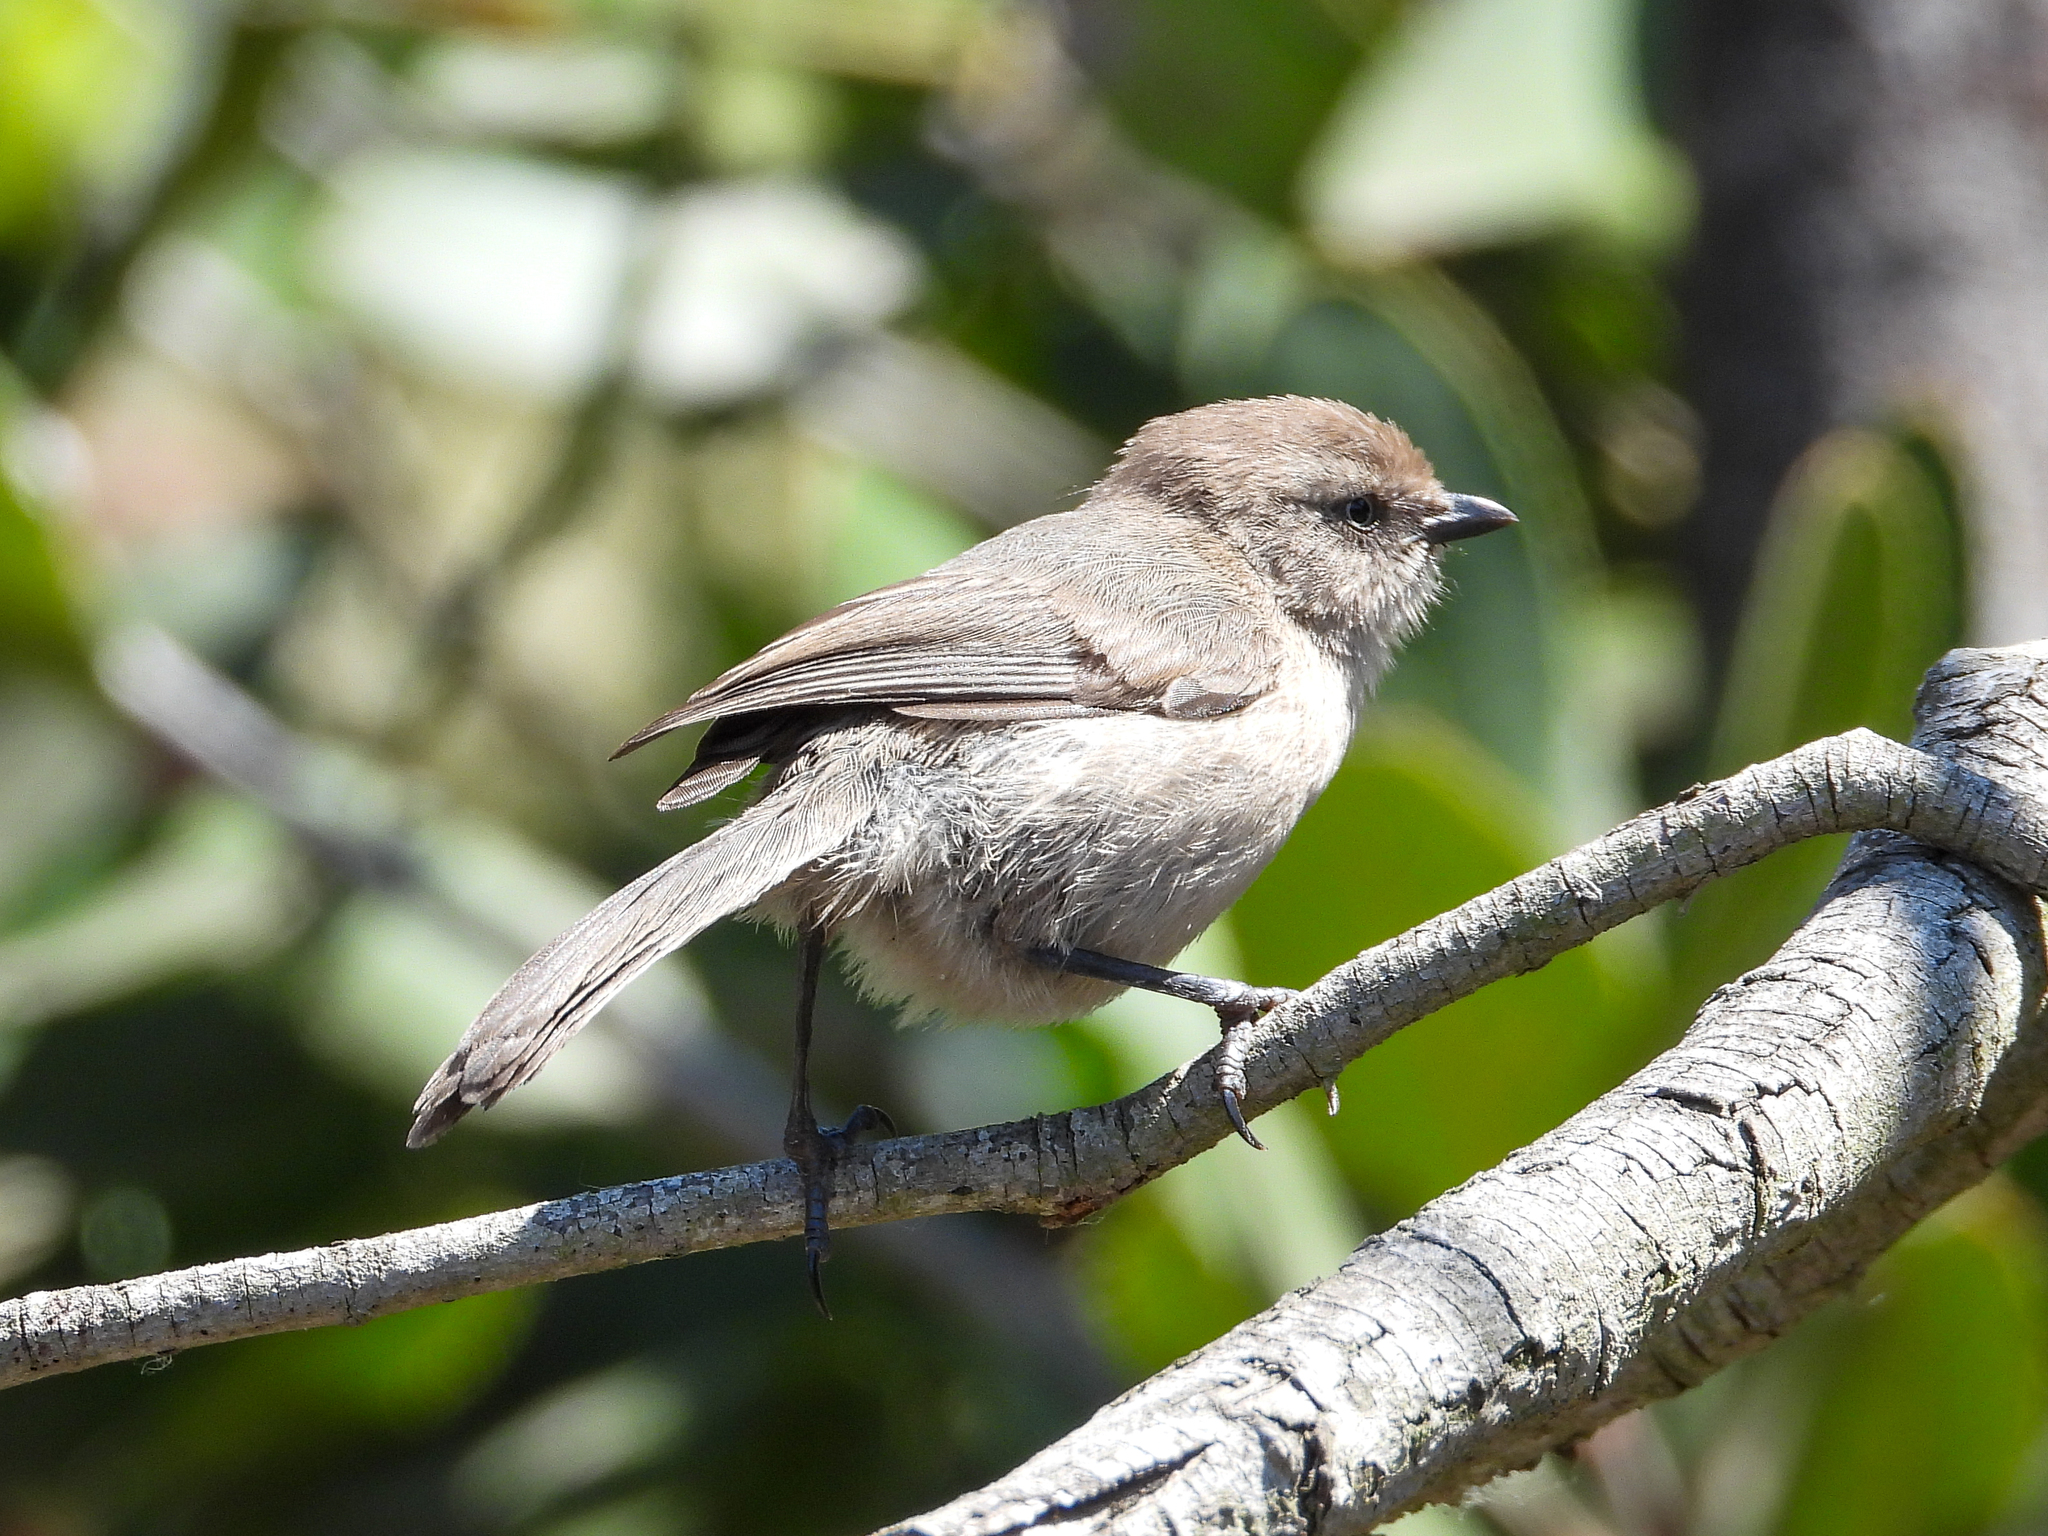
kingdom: Animalia
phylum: Chordata
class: Aves
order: Passeriformes
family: Aegithalidae
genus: Psaltriparus
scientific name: Psaltriparus minimus
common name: American bushtit
